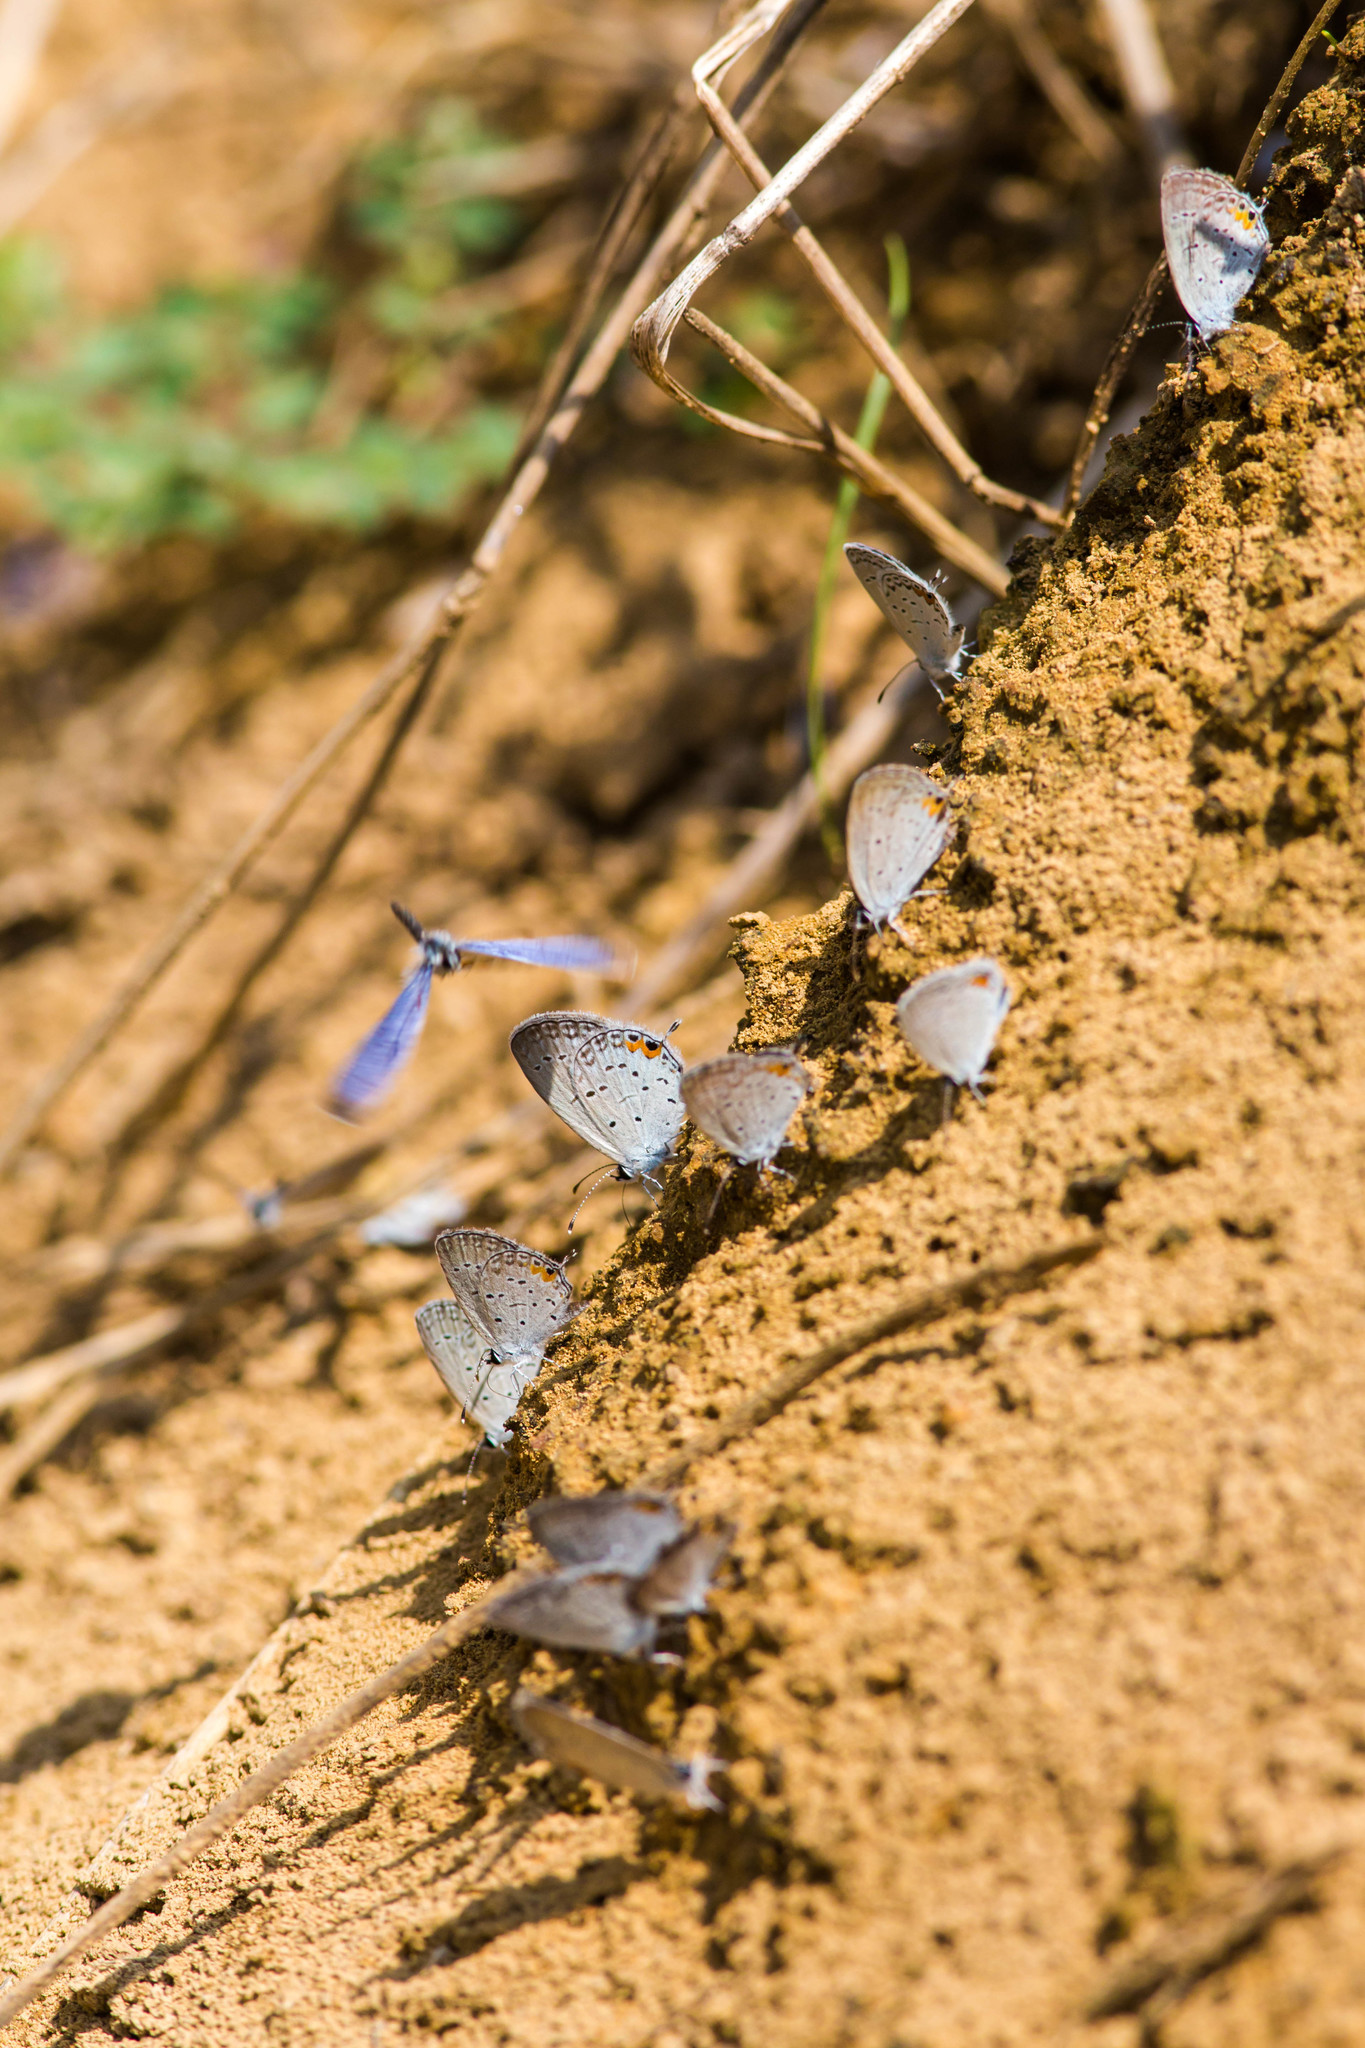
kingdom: Animalia
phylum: Arthropoda
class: Insecta
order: Lepidoptera
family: Lycaenidae
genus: Elkalyce
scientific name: Elkalyce comyntas
